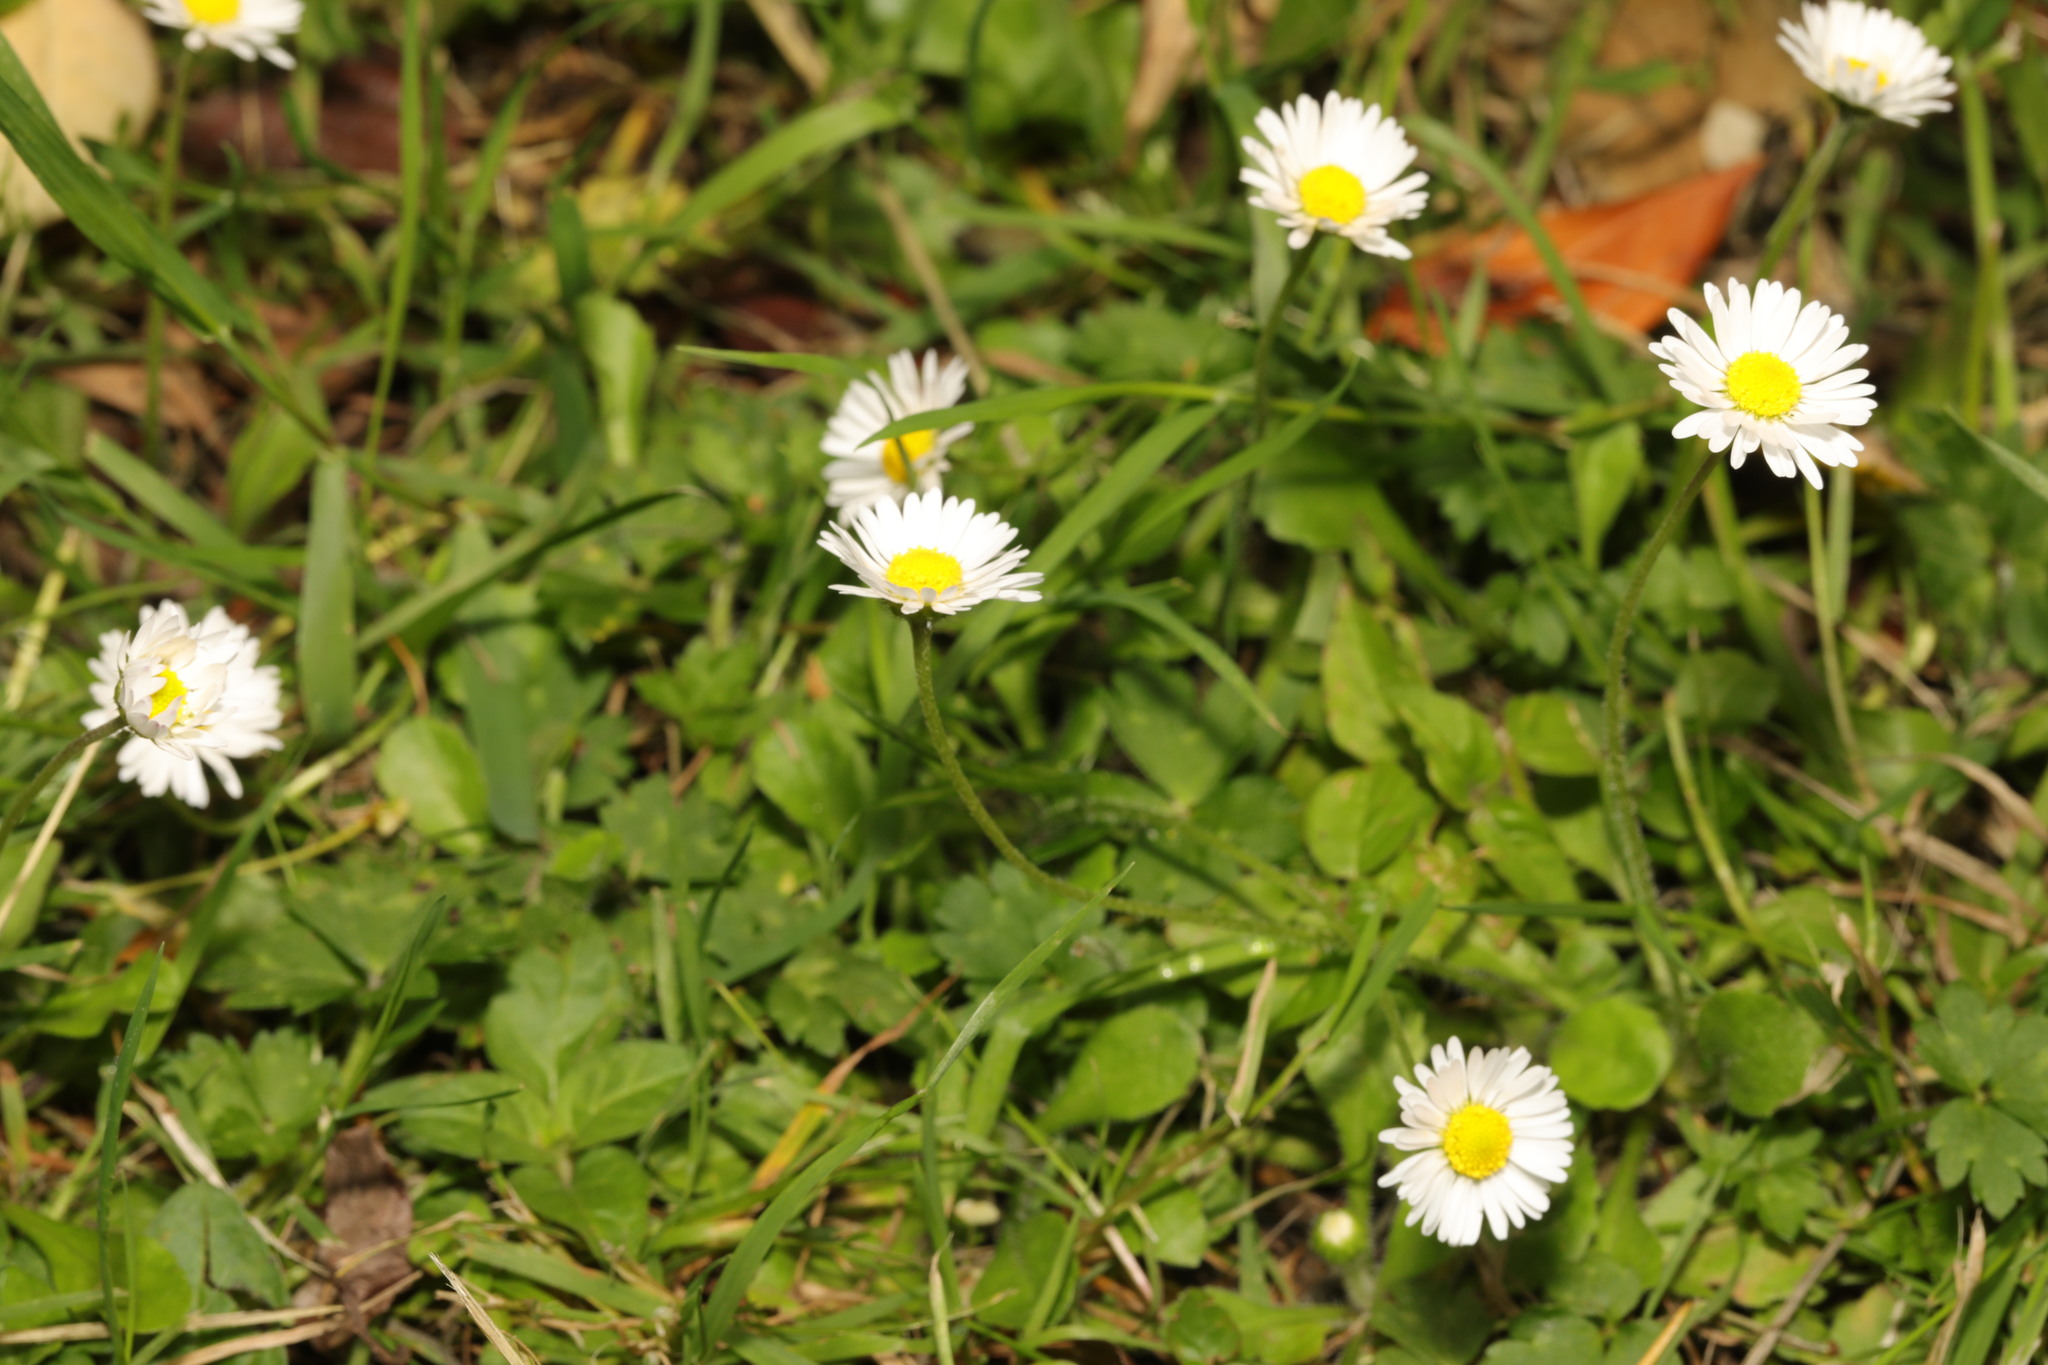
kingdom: Plantae
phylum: Tracheophyta
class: Magnoliopsida
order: Asterales
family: Asteraceae
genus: Bellis
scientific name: Bellis perennis
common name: Lawndaisy
